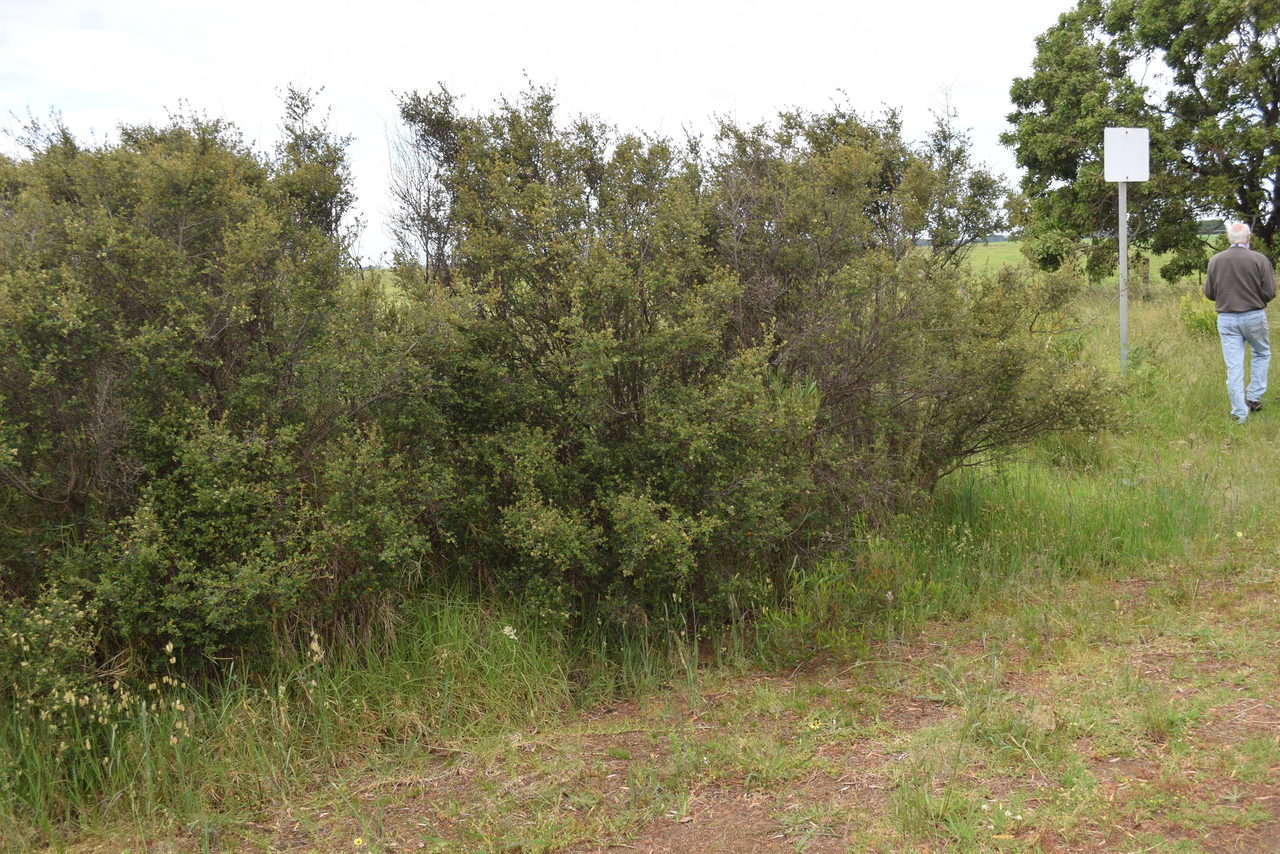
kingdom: Plantae
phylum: Tracheophyta
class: Magnoliopsida
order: Rosales
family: Rhamnaceae
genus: Pomaderris
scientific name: Pomaderris racemosa
